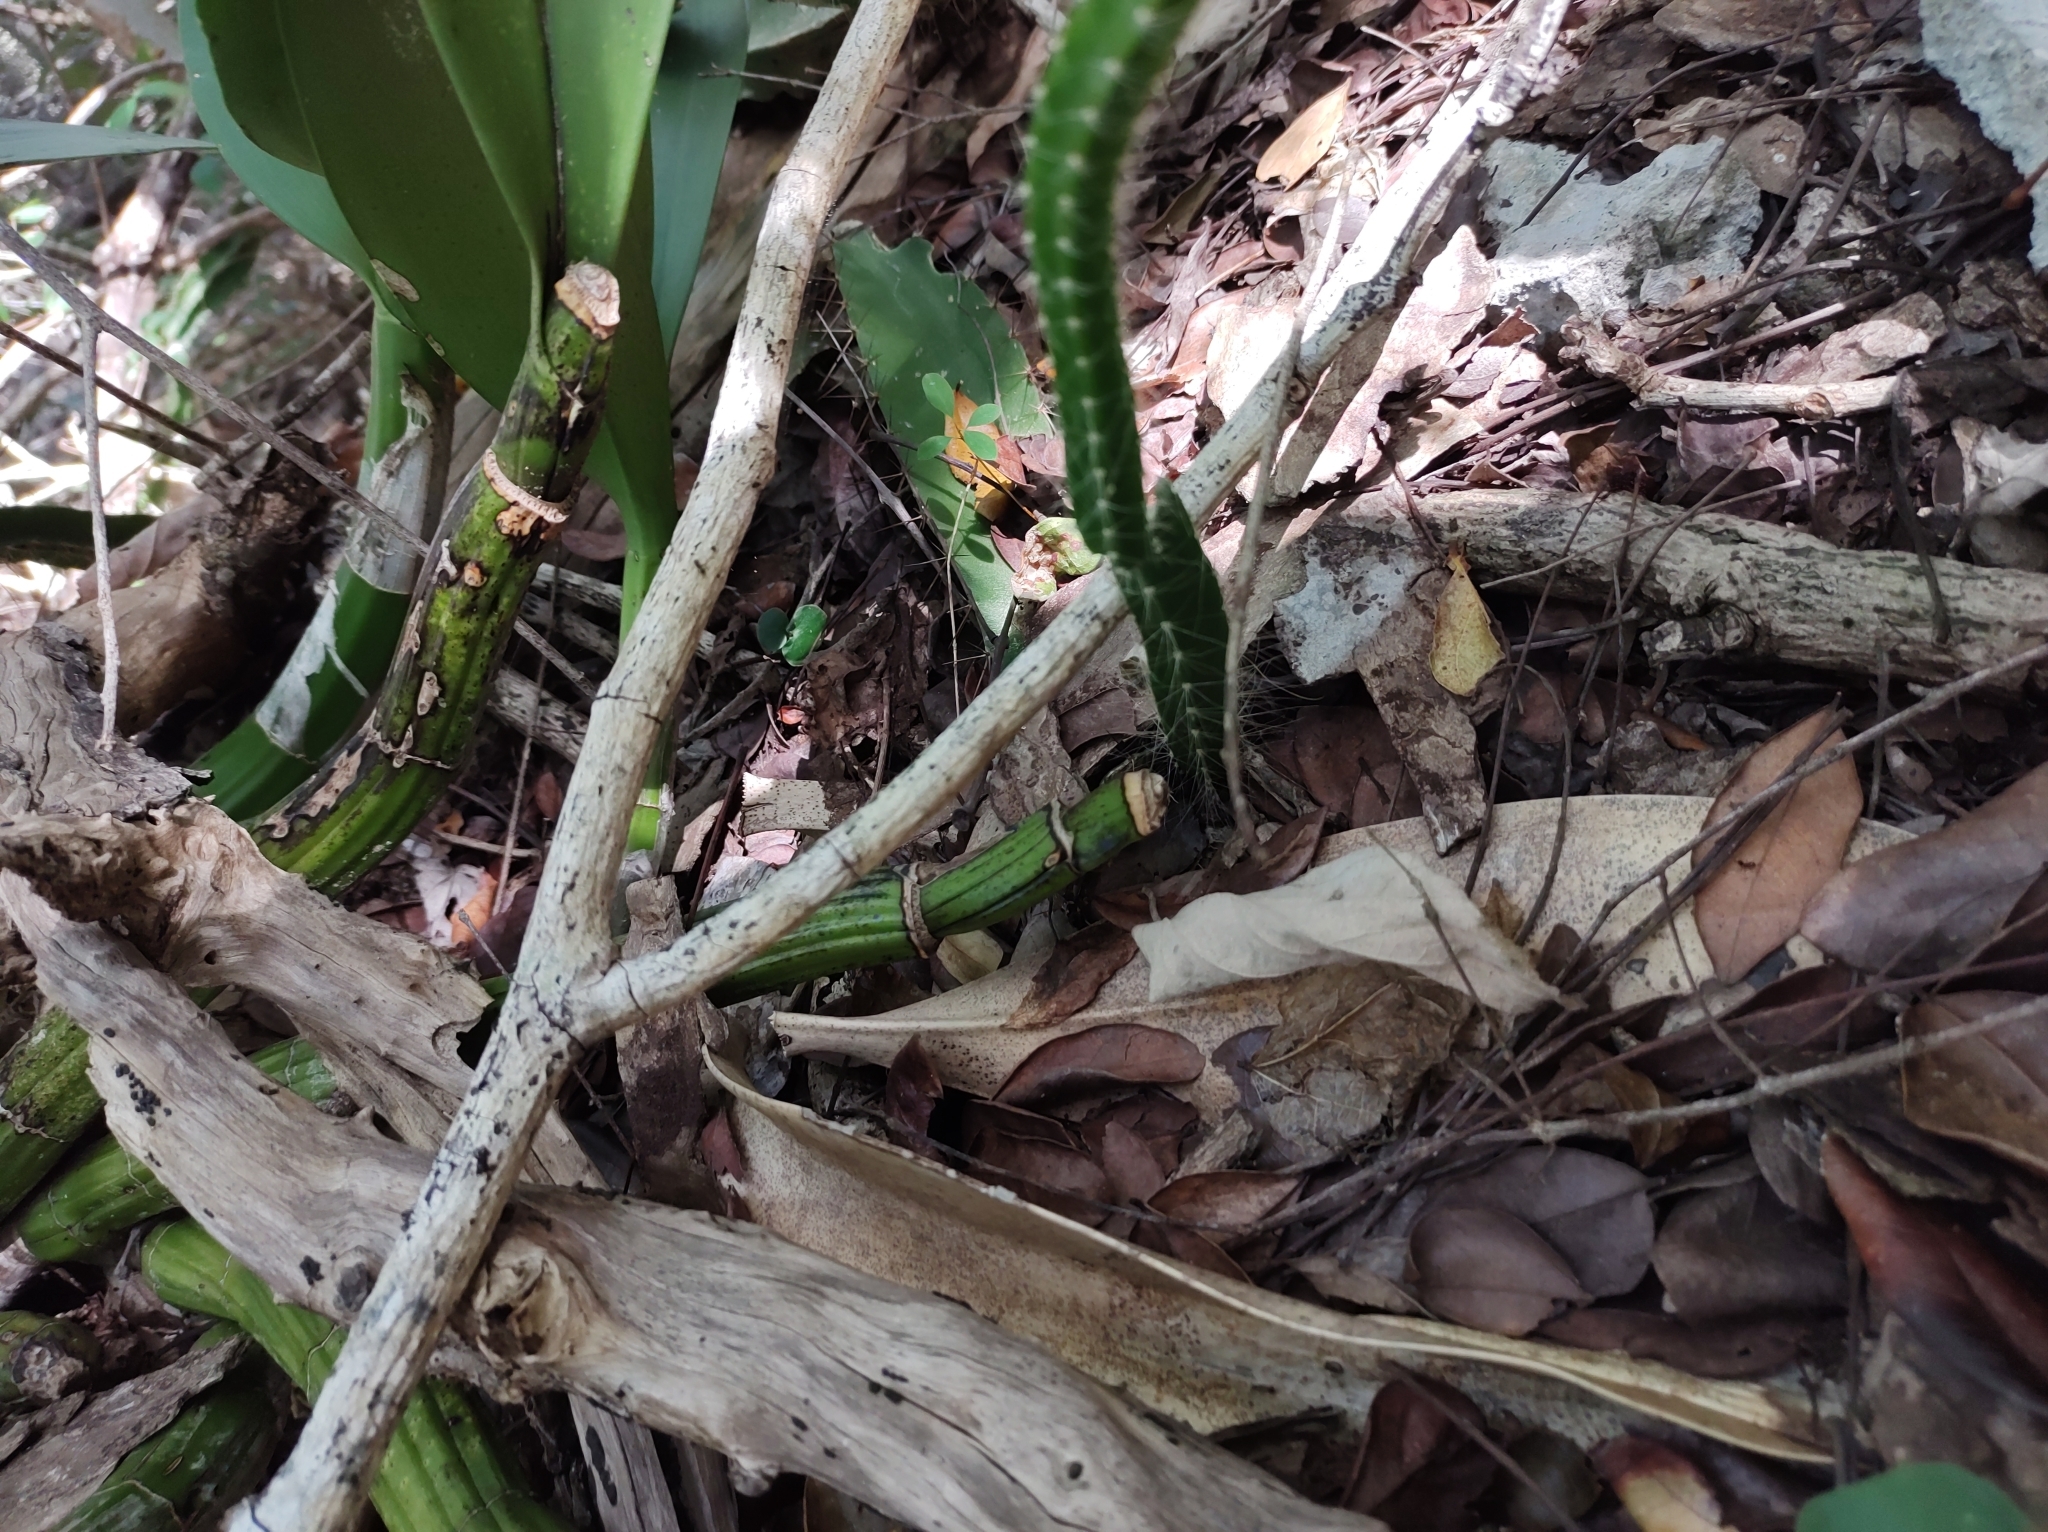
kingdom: Plantae
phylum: Tracheophyta
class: Magnoliopsida
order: Caryophyllales
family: Cactaceae
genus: Acanthocereus
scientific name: Acanthocereus tetragonus
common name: Triangle cactus
